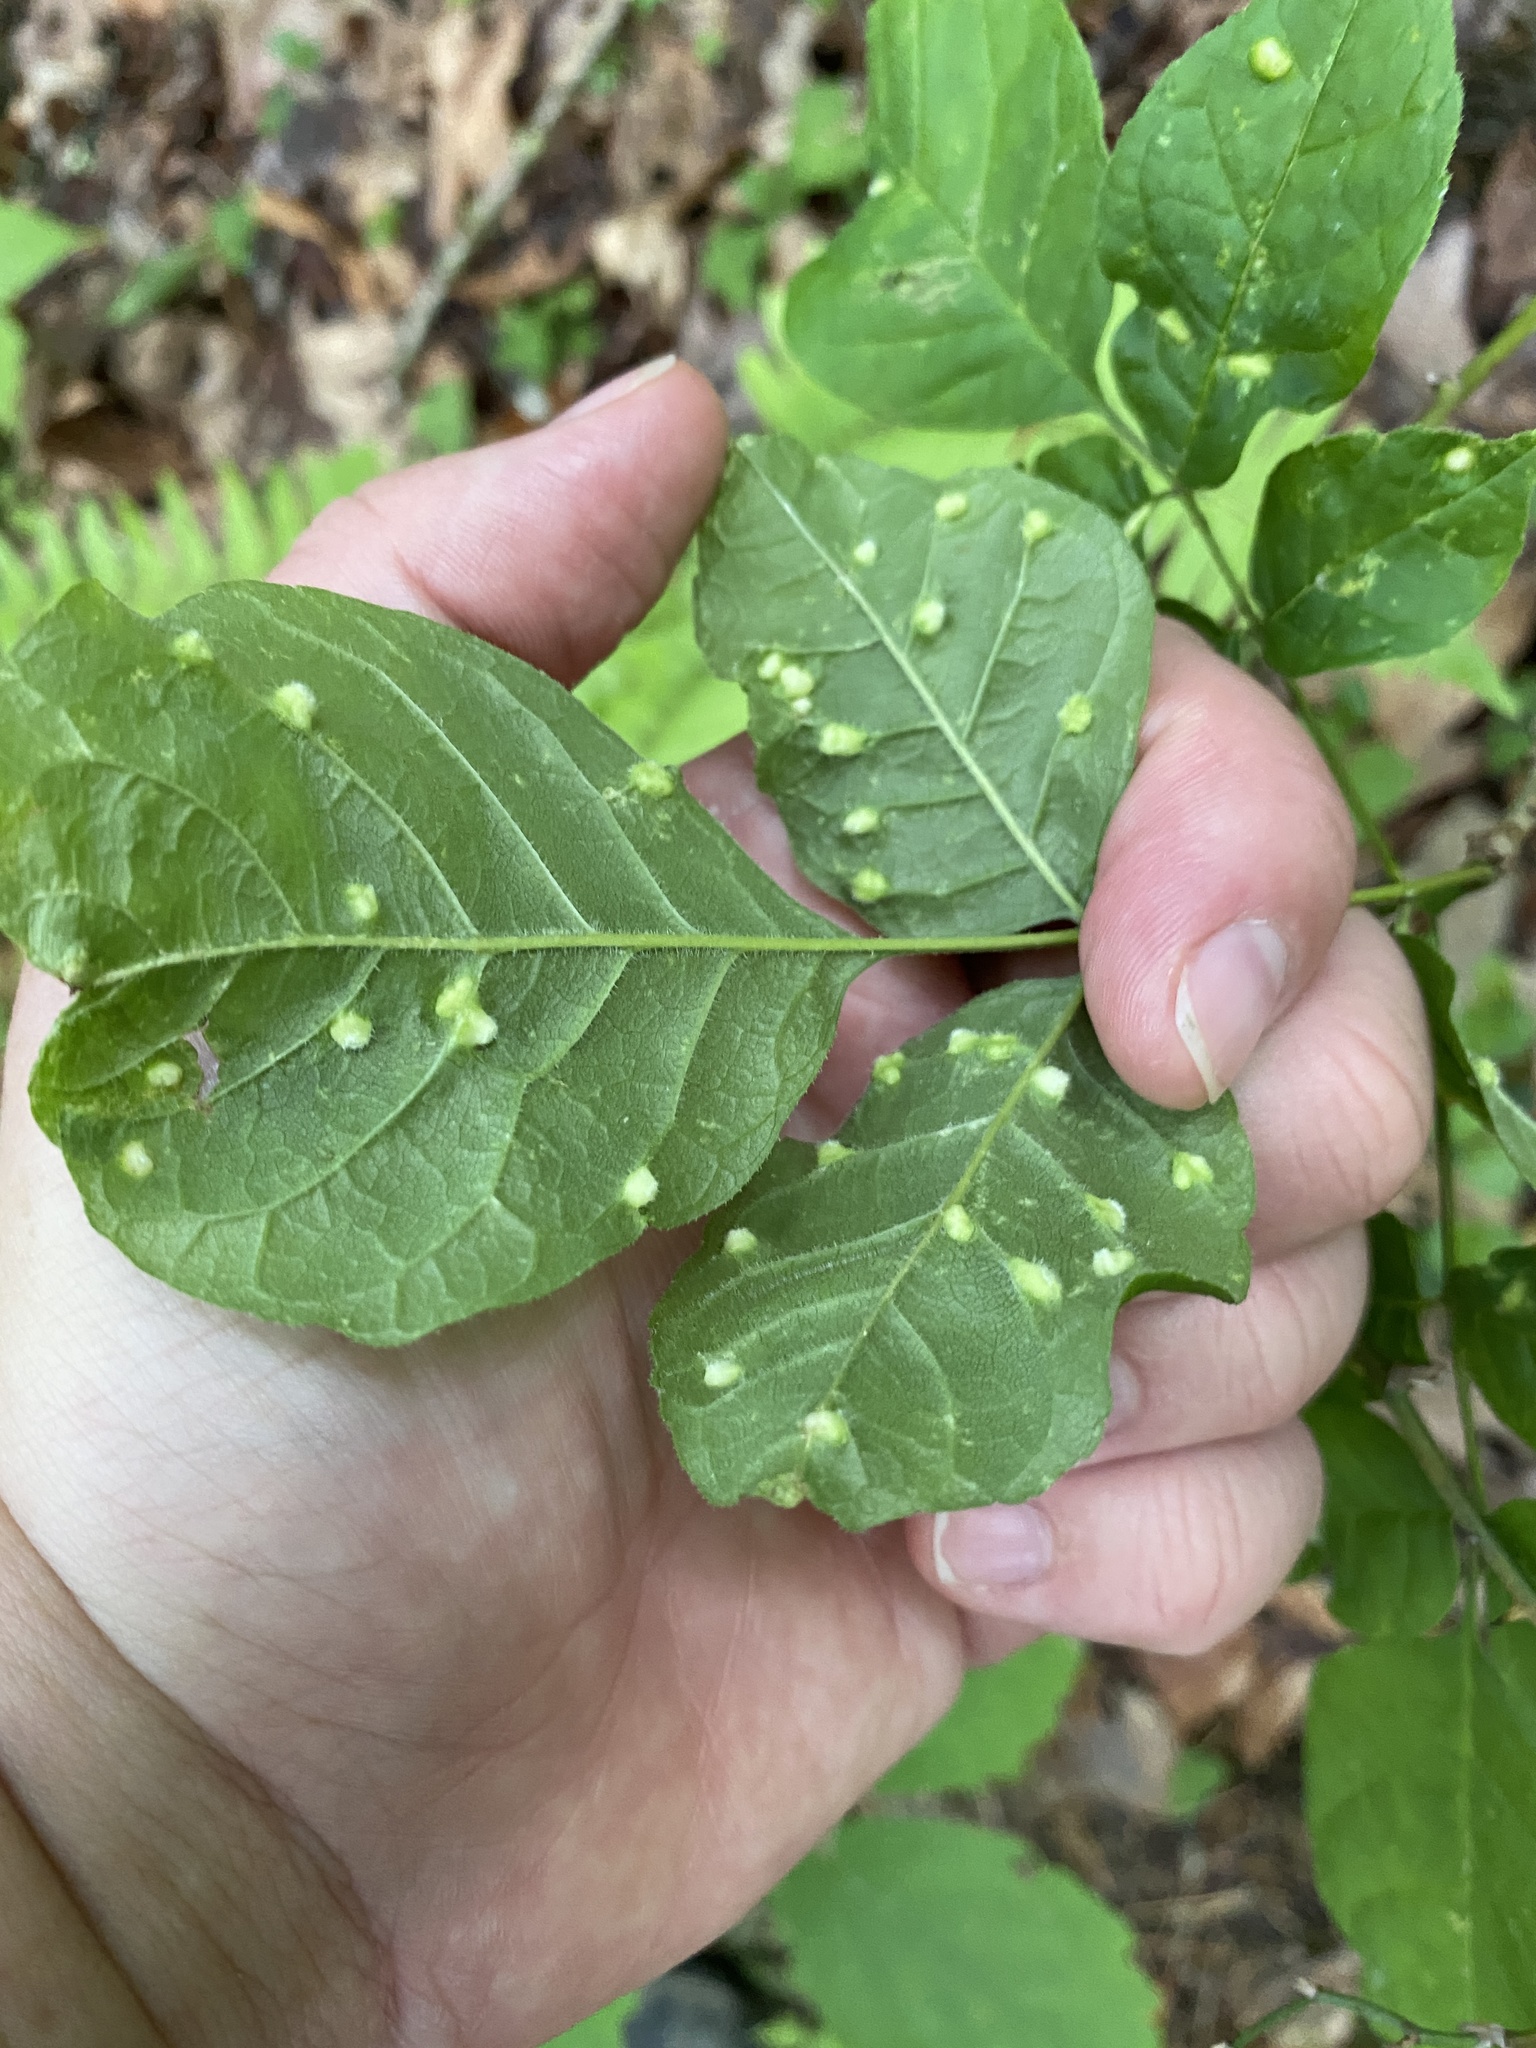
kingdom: Animalia
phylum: Arthropoda
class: Arachnida
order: Trombidiformes
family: Eriophyidae
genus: Aceria
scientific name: Aceria fraxinicola
